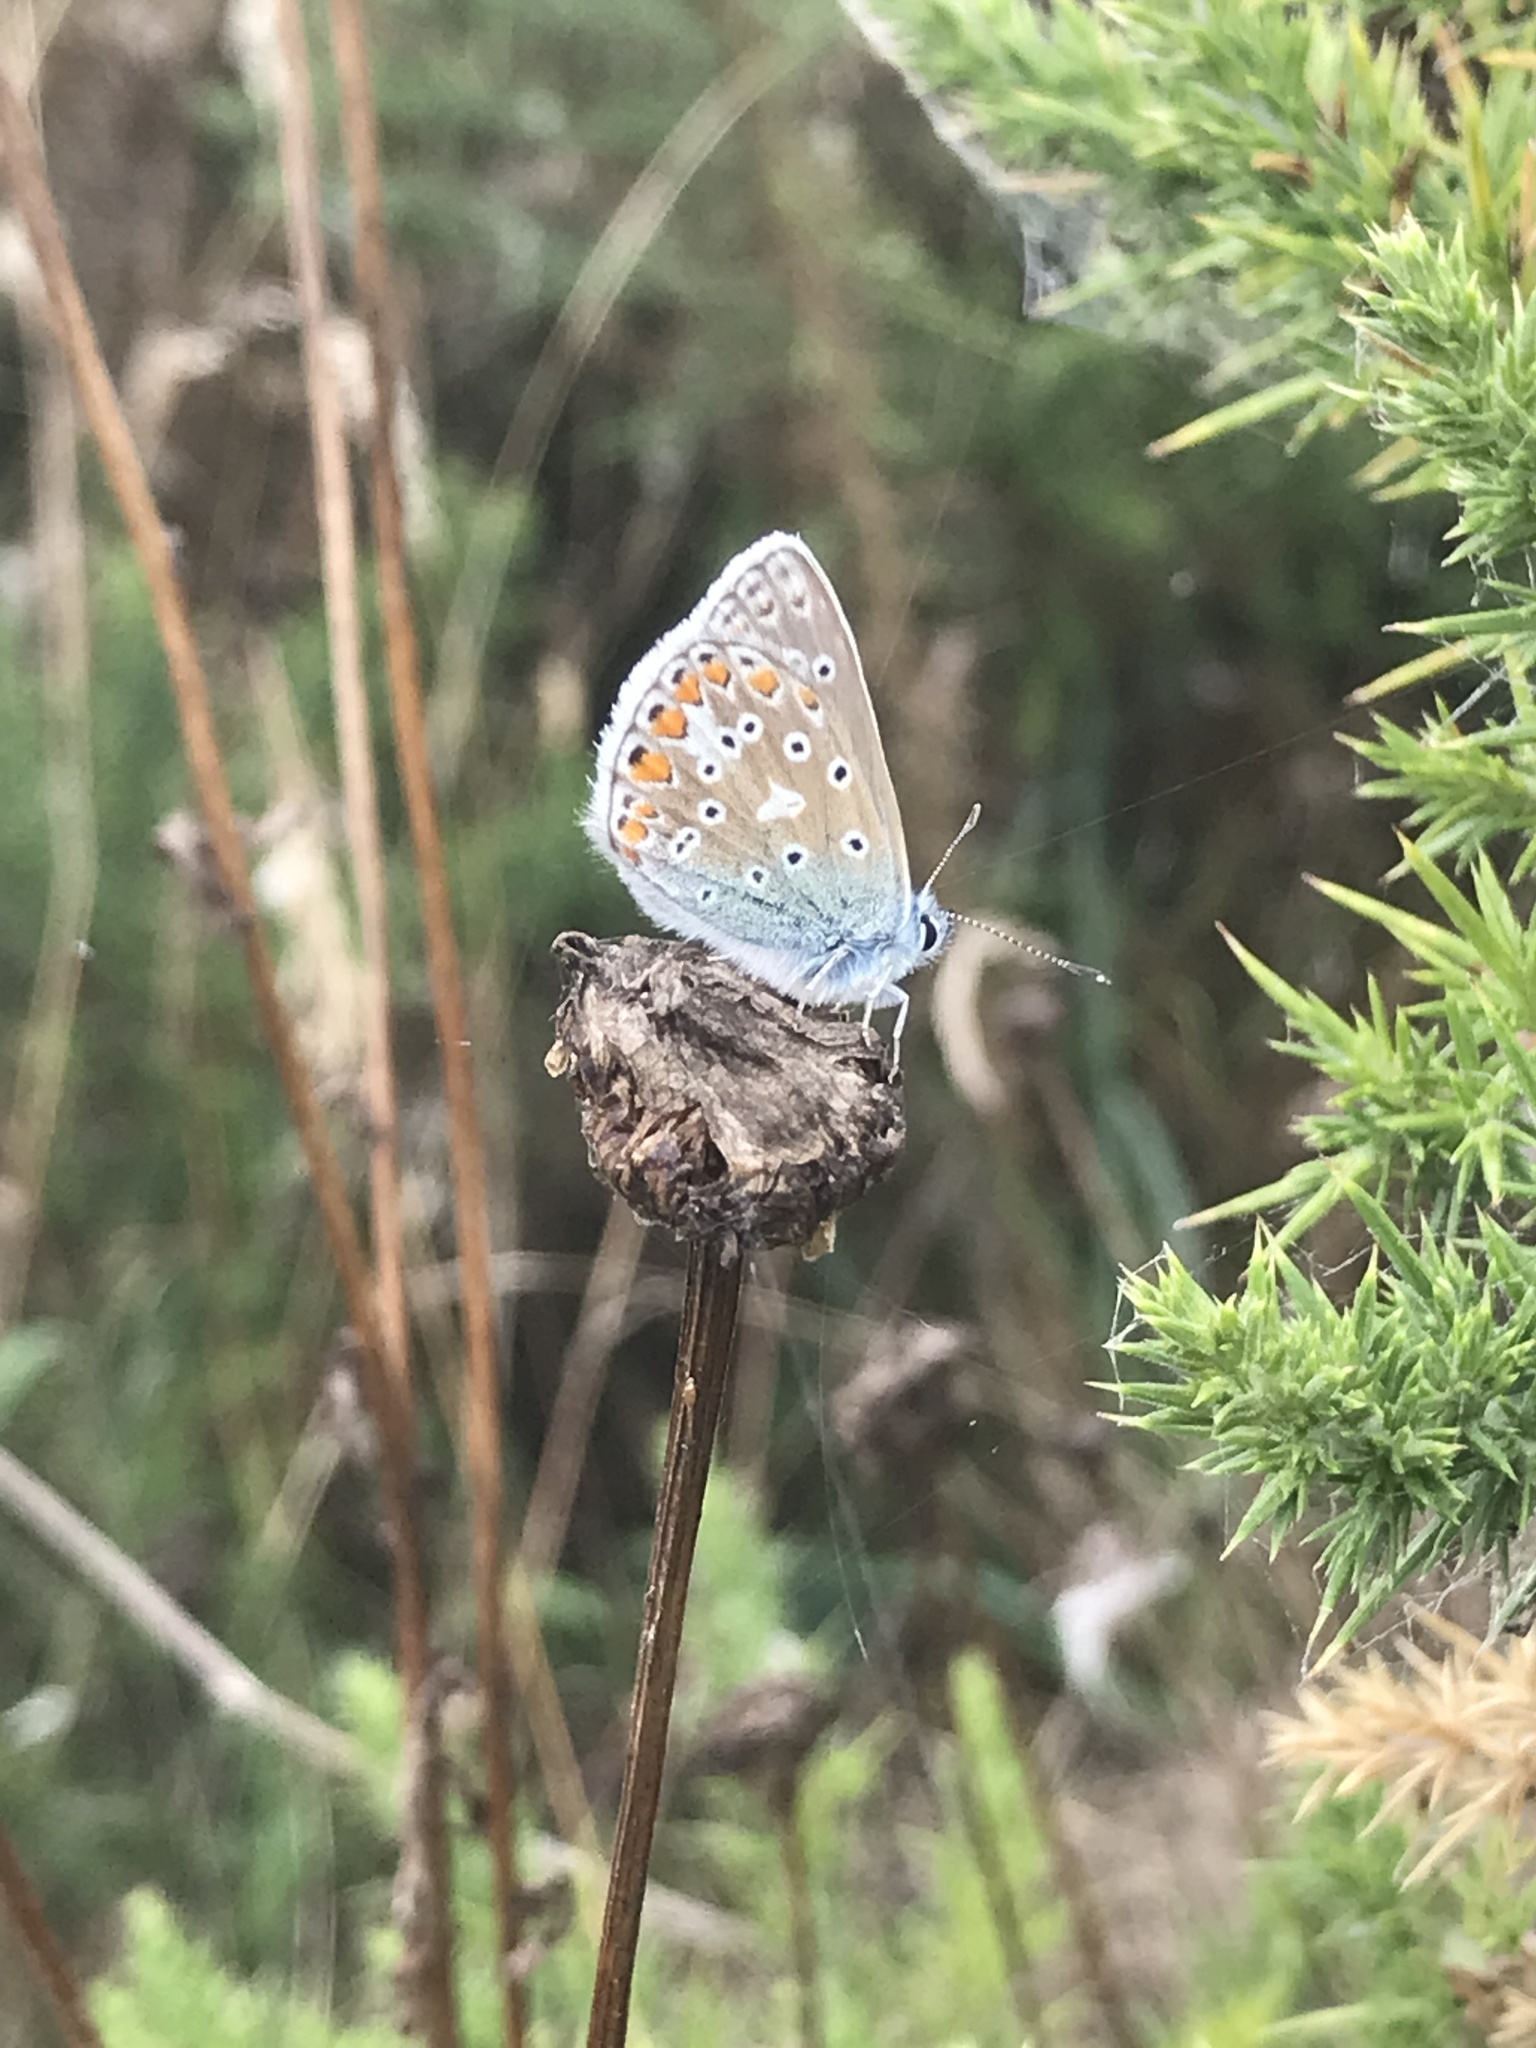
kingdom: Animalia
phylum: Arthropoda
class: Insecta
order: Lepidoptera
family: Lycaenidae
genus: Polyommatus
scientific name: Polyommatus icarus
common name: Common blue
